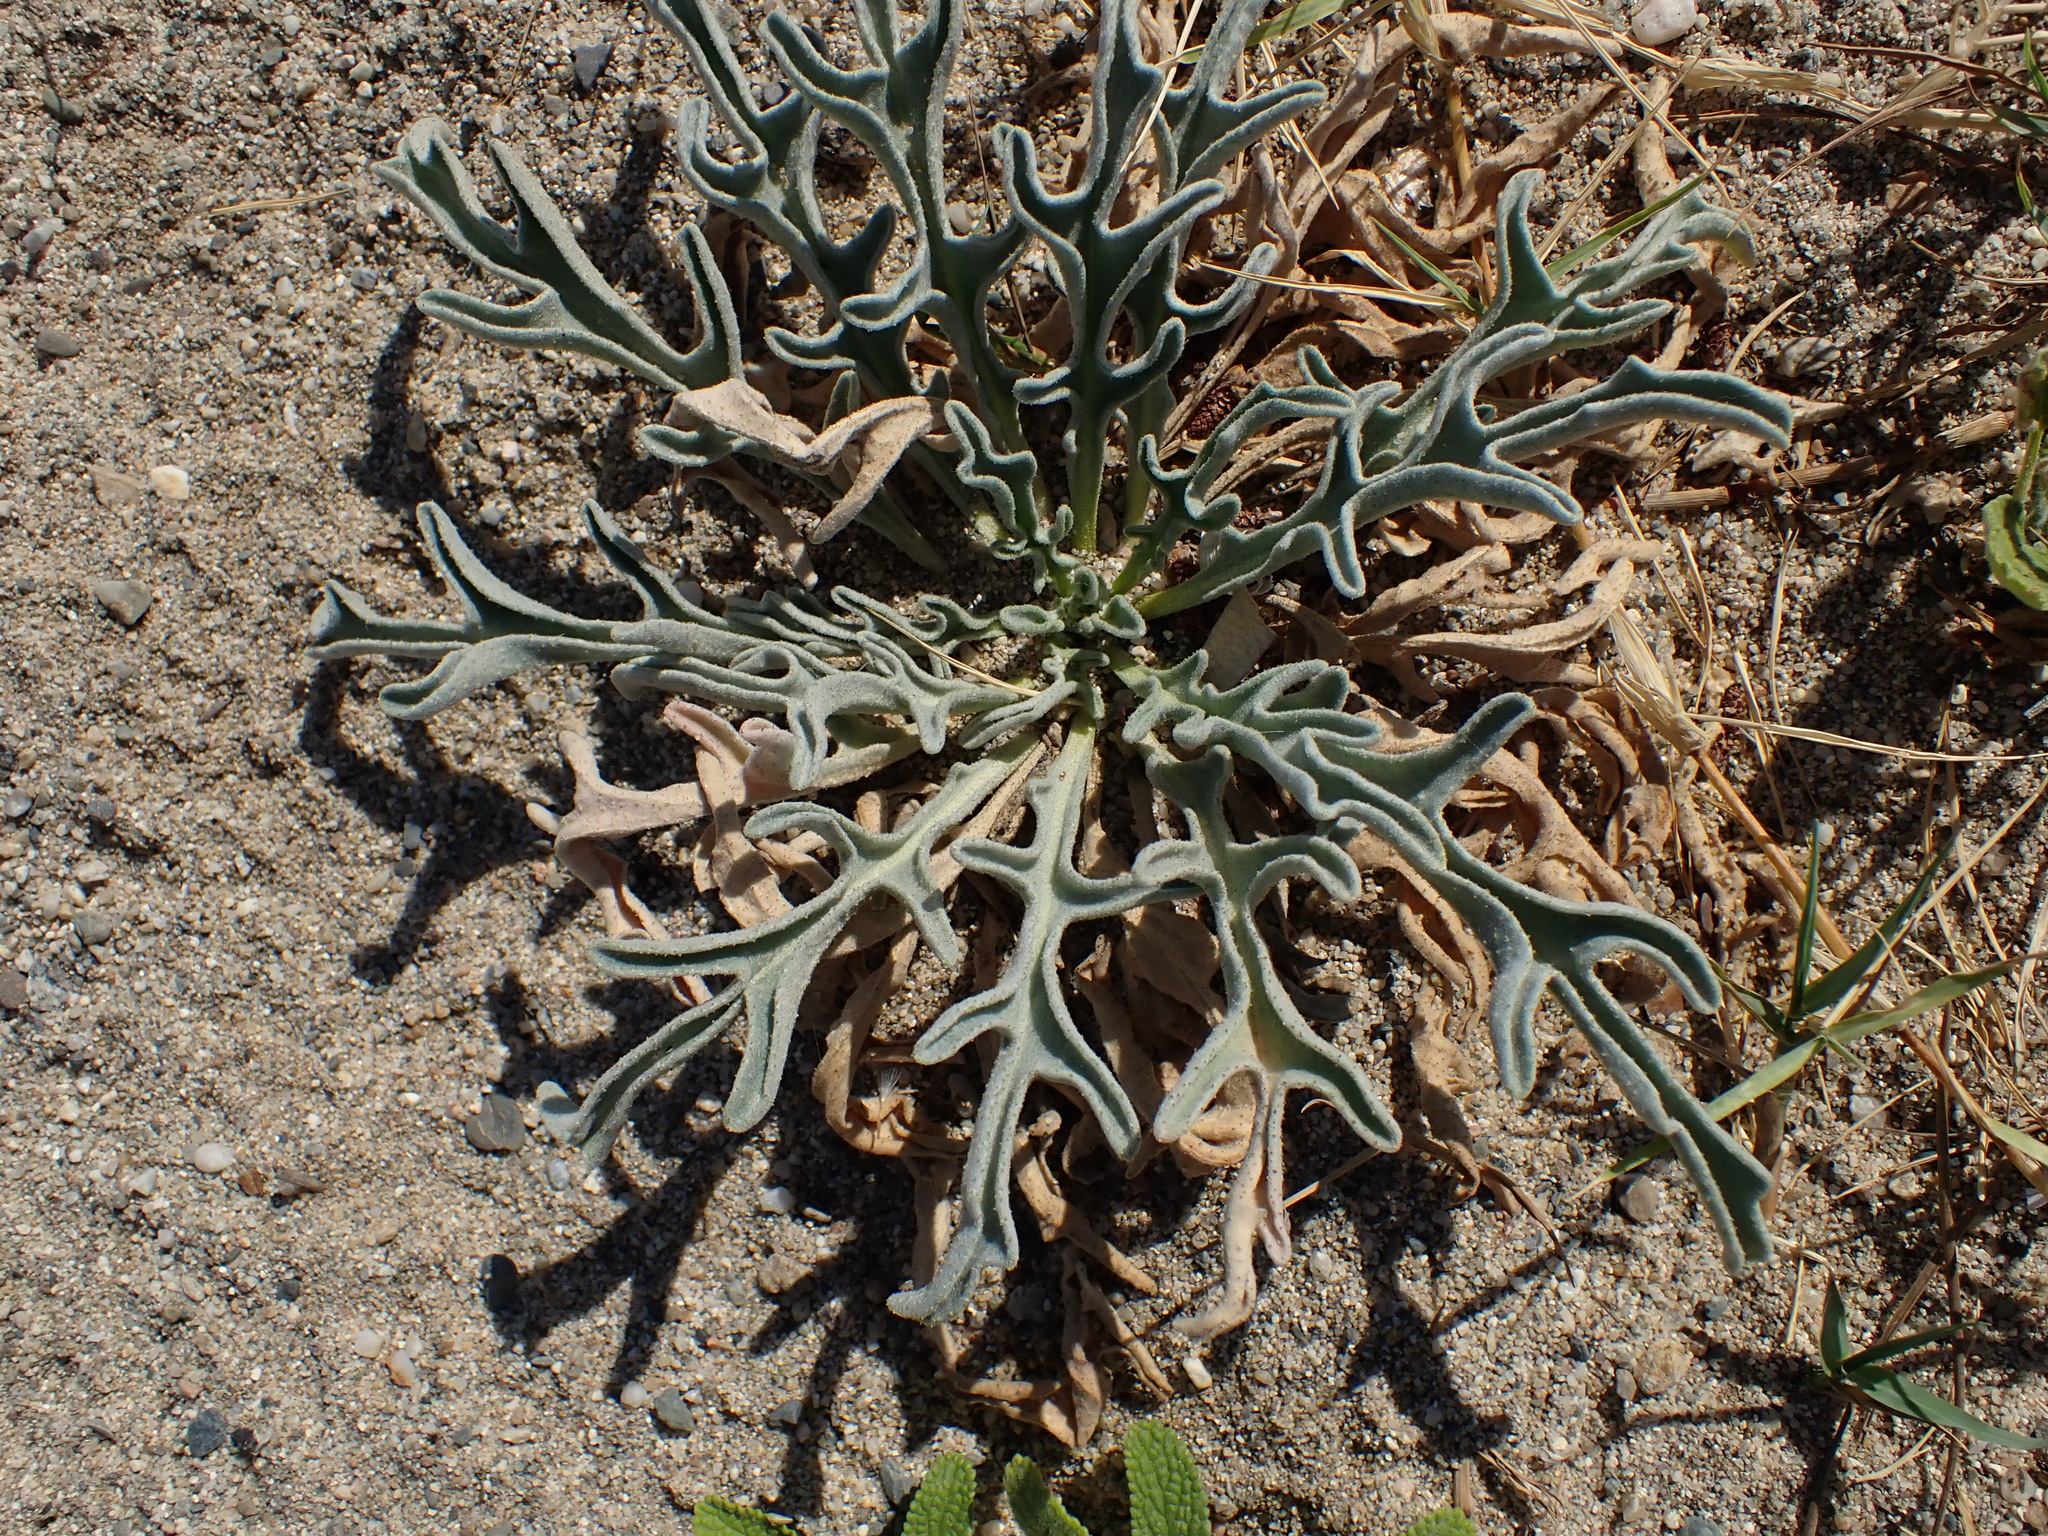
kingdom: Plantae
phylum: Tracheophyta
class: Magnoliopsida
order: Brassicales
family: Brassicaceae
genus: Matthiola
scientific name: Matthiola sinuata
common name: Sea stock
